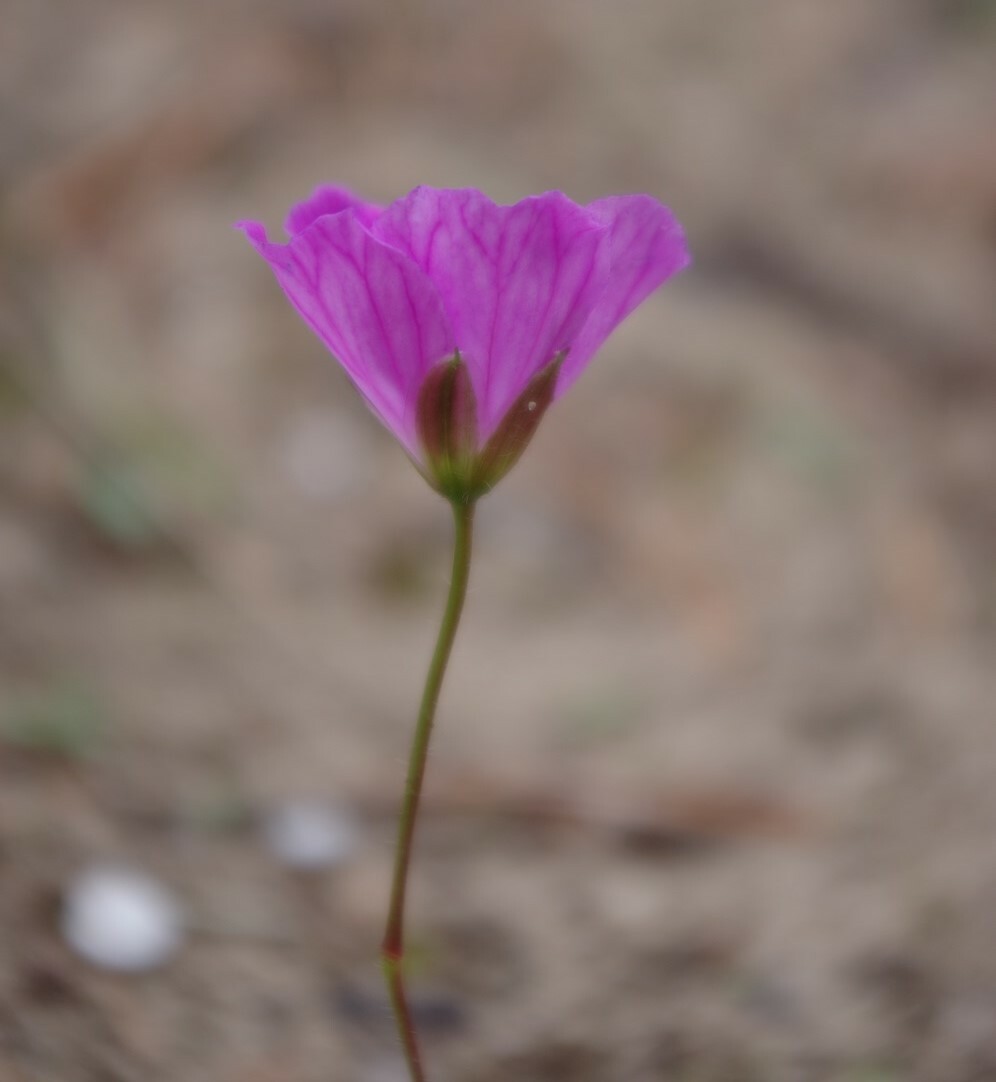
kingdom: Plantae
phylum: Tracheophyta
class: Magnoliopsida
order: Geraniales
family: Geraniaceae
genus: Geranium
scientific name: Geranium sanguineum
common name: Bloody crane's-bill
